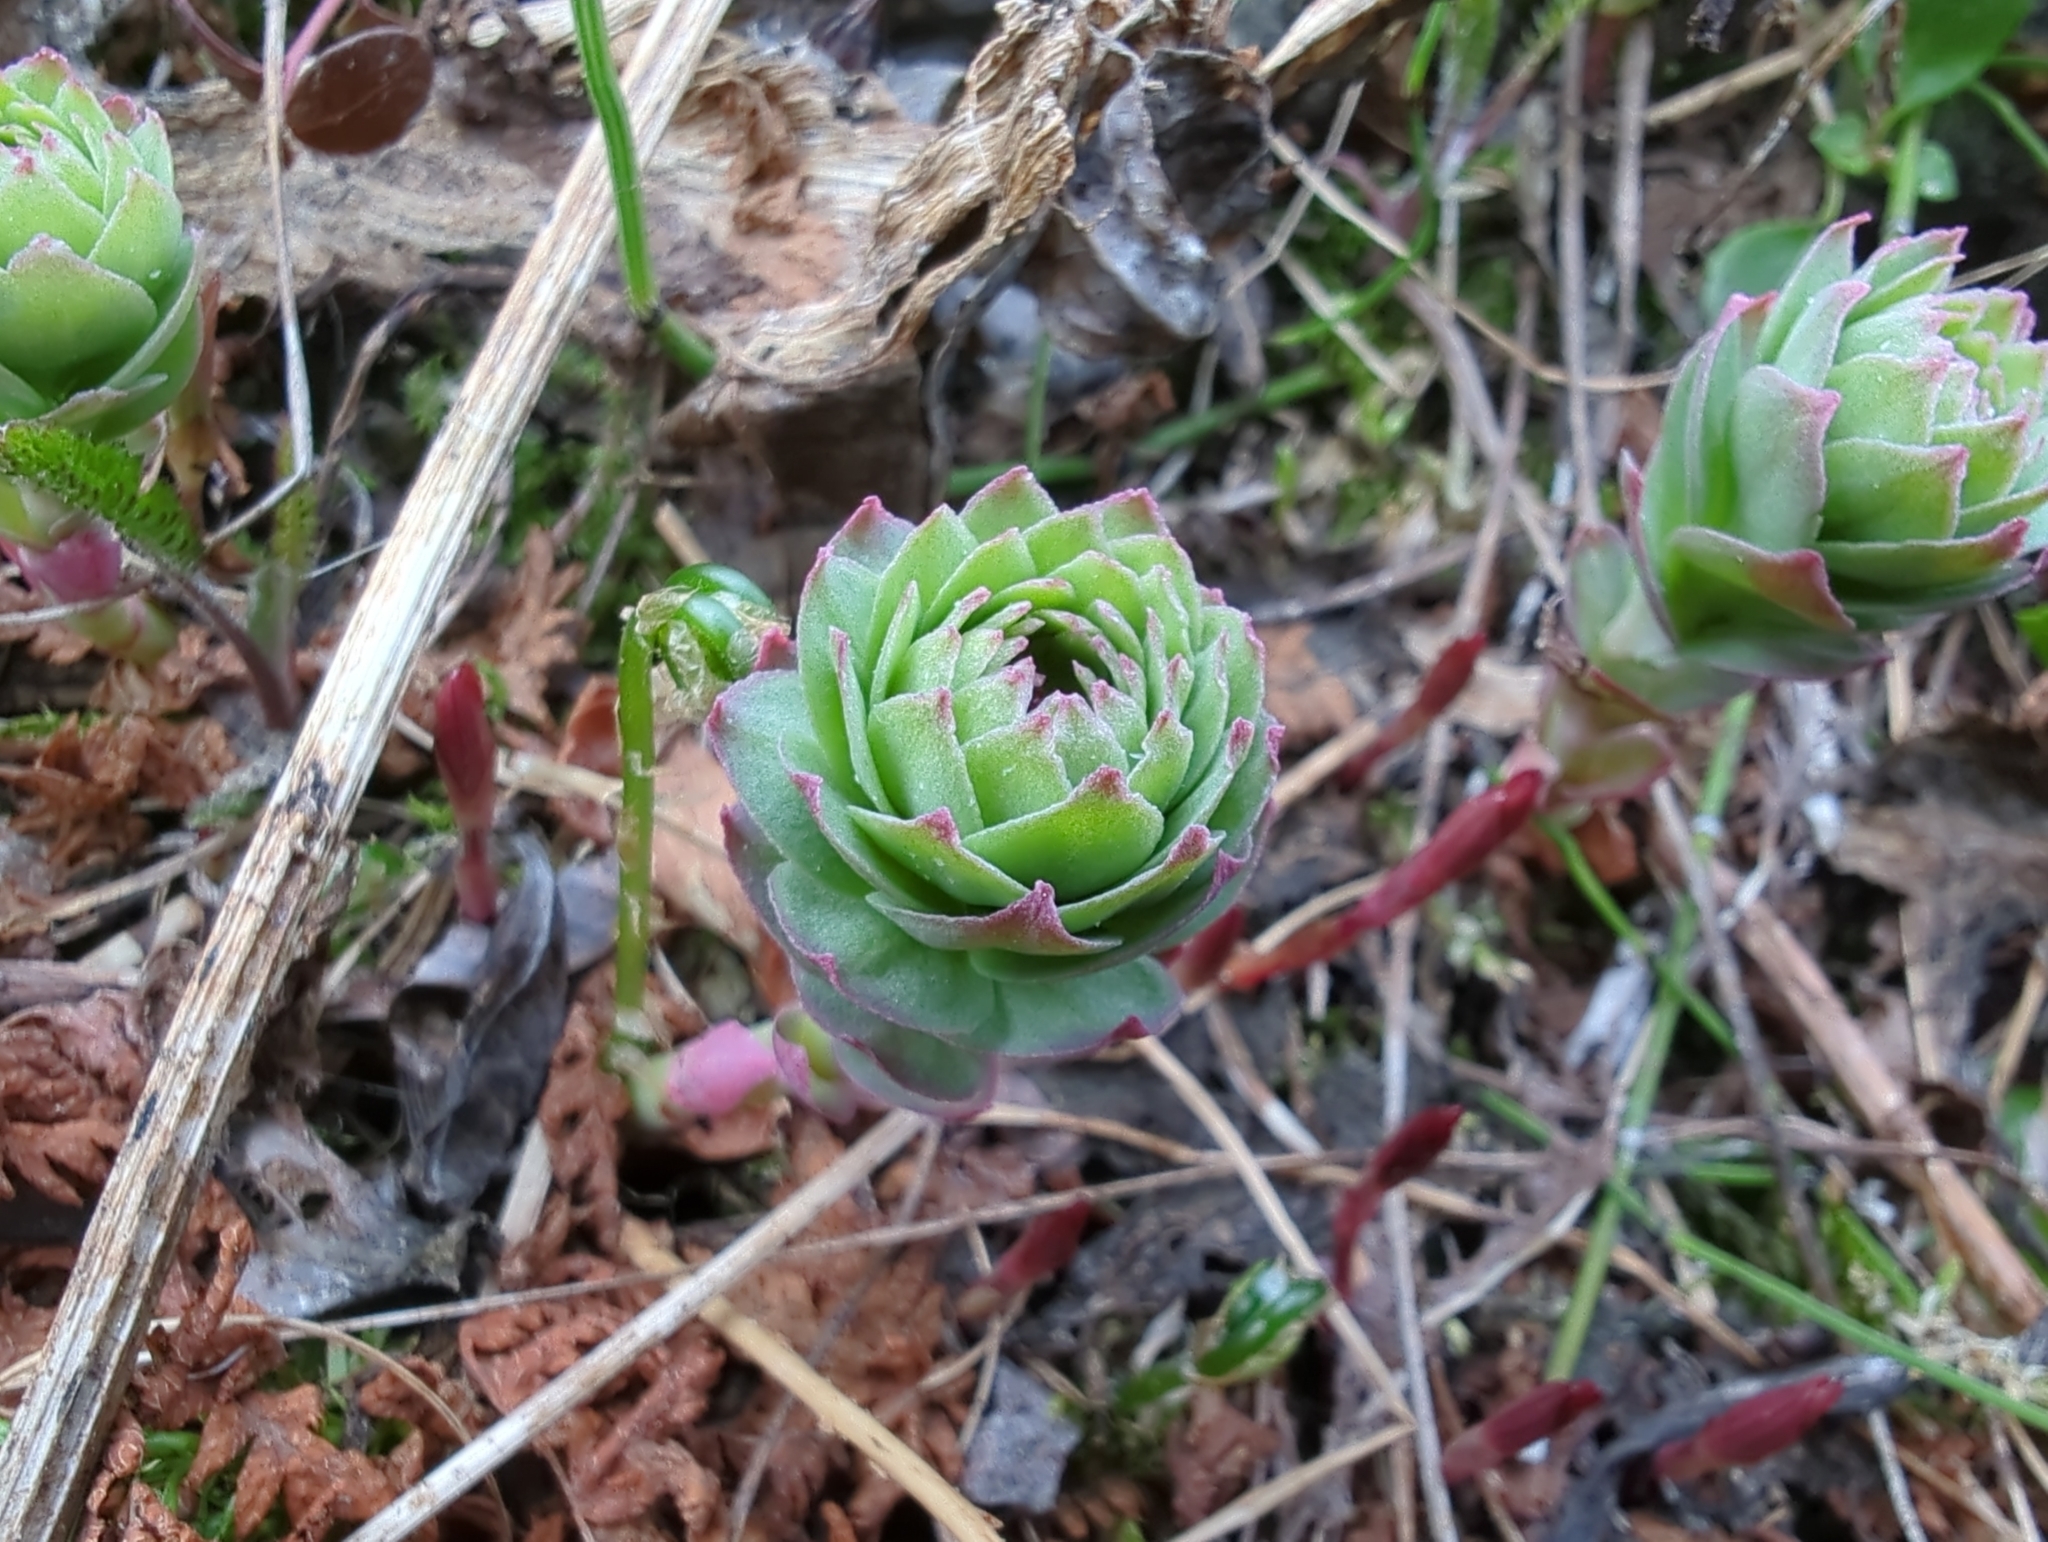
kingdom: Plantae
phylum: Tracheophyta
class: Magnoliopsida
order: Saxifragales
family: Crassulaceae
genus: Rhodiola
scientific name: Rhodiola integrifolia
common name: Western roseroot
